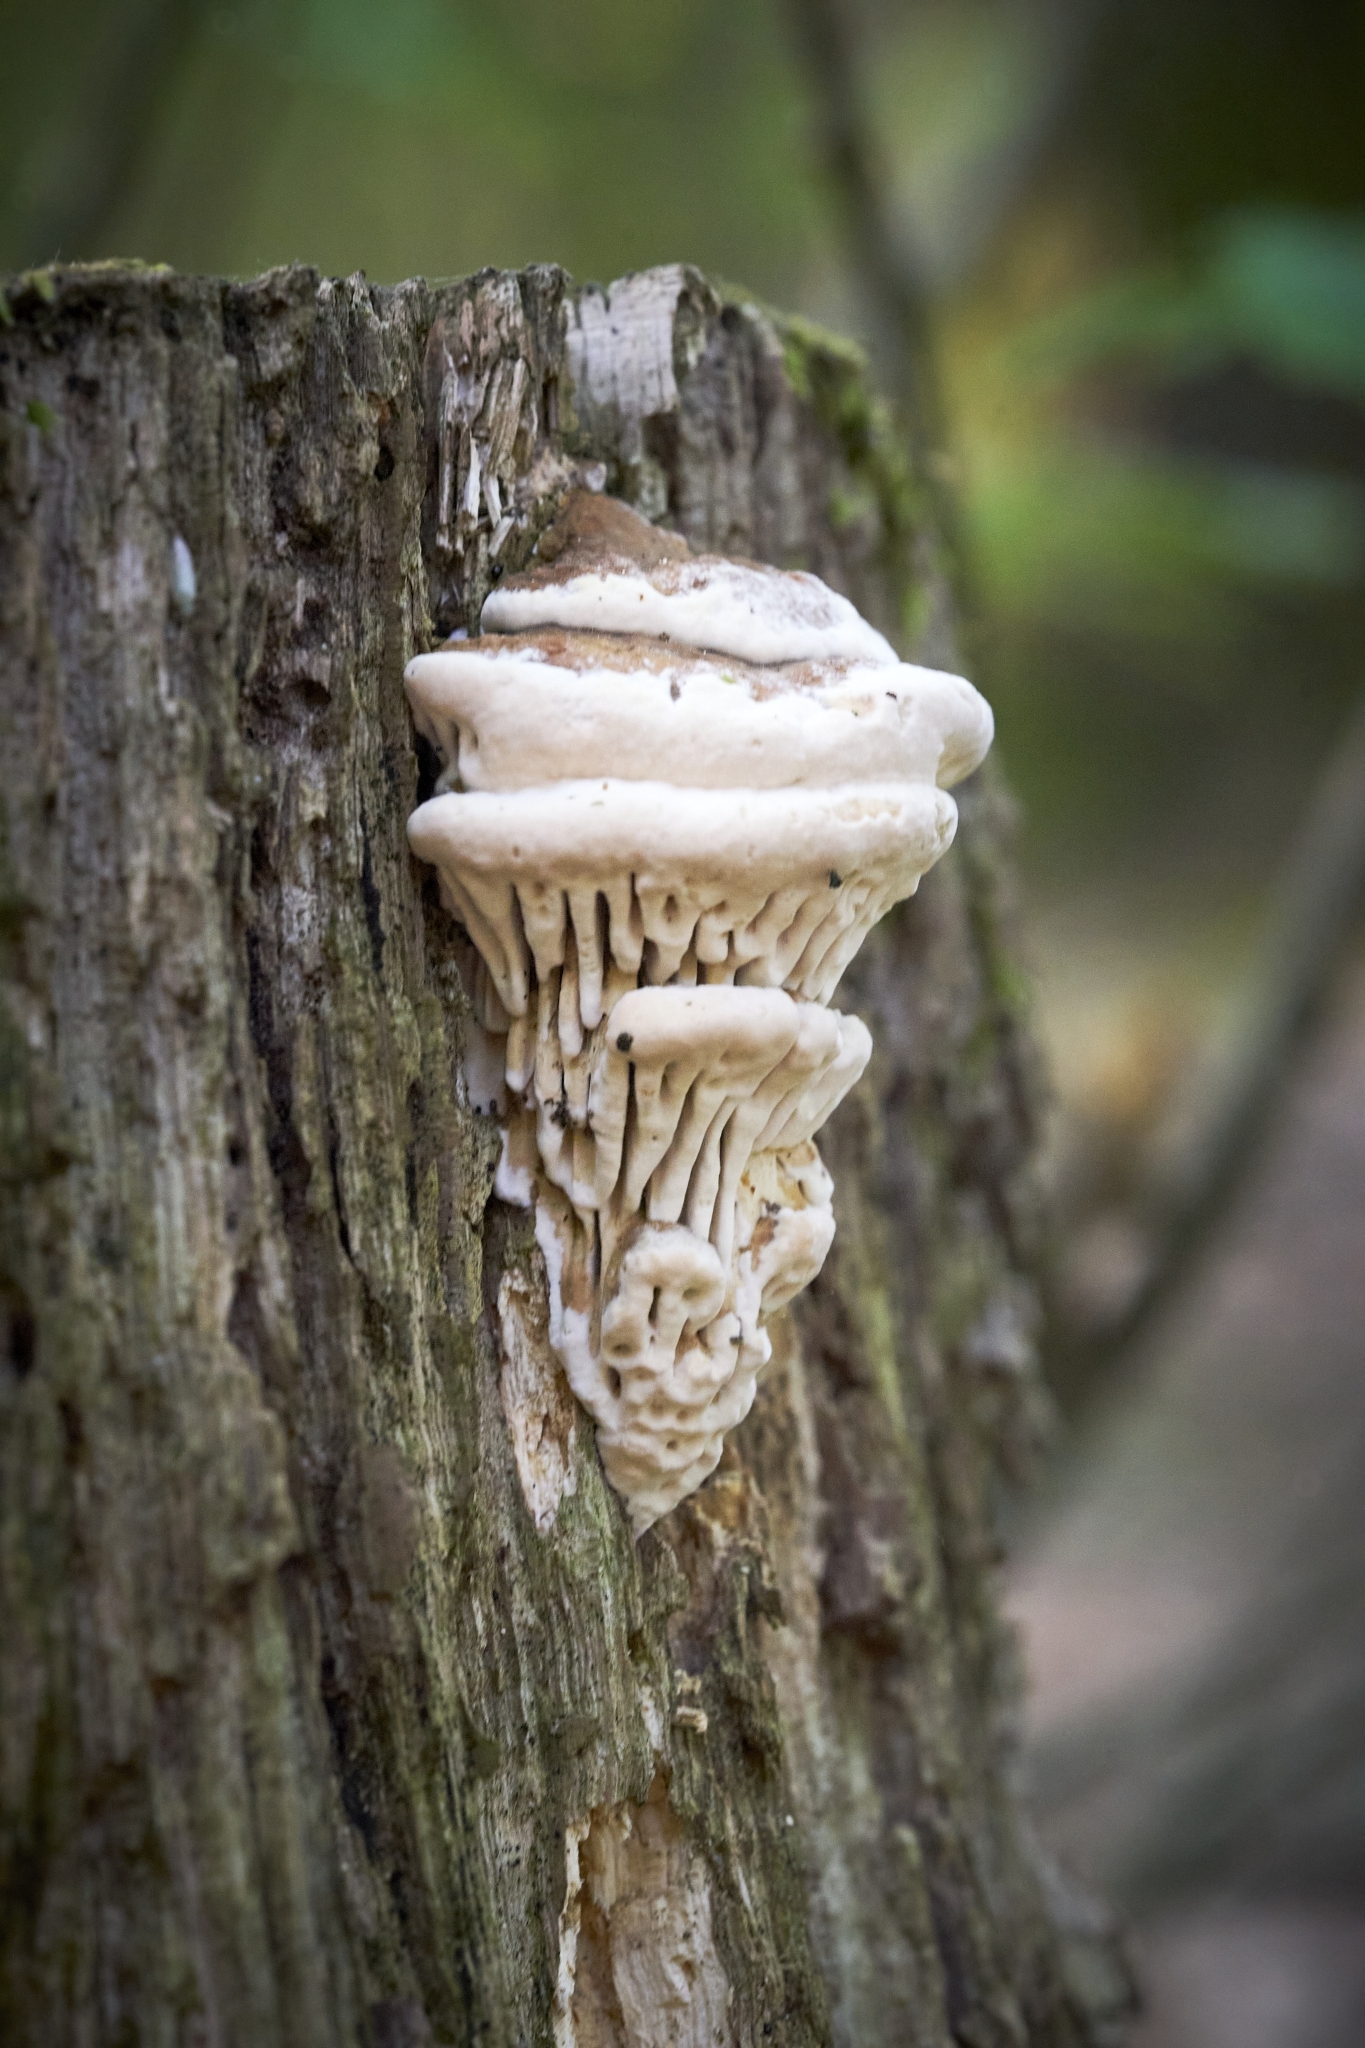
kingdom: Fungi
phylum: Basidiomycota
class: Agaricomycetes
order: Polyporales
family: Fomitopsidaceae
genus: Fomitopsis
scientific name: Fomitopsis
